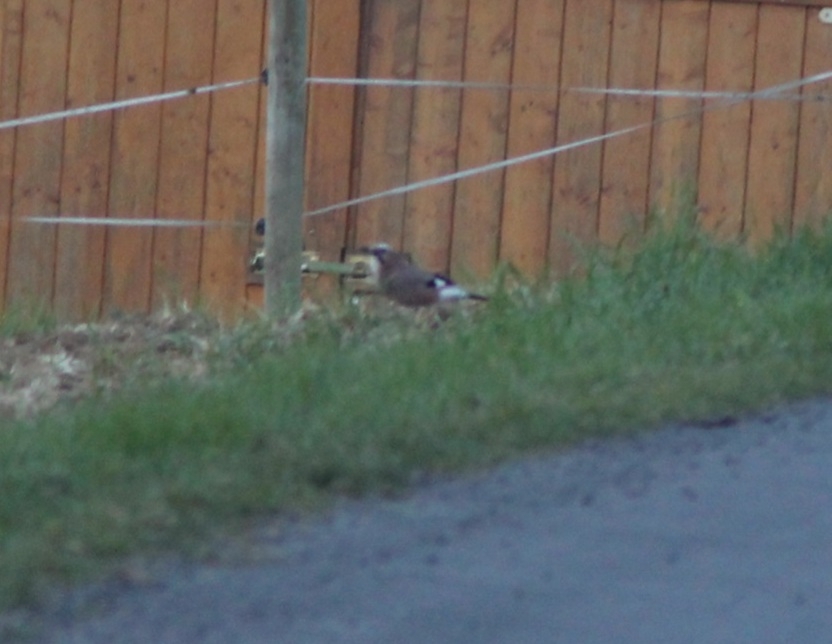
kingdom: Animalia
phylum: Chordata
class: Aves
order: Passeriformes
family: Corvidae
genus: Garrulus
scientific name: Garrulus glandarius
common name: Eurasian jay
